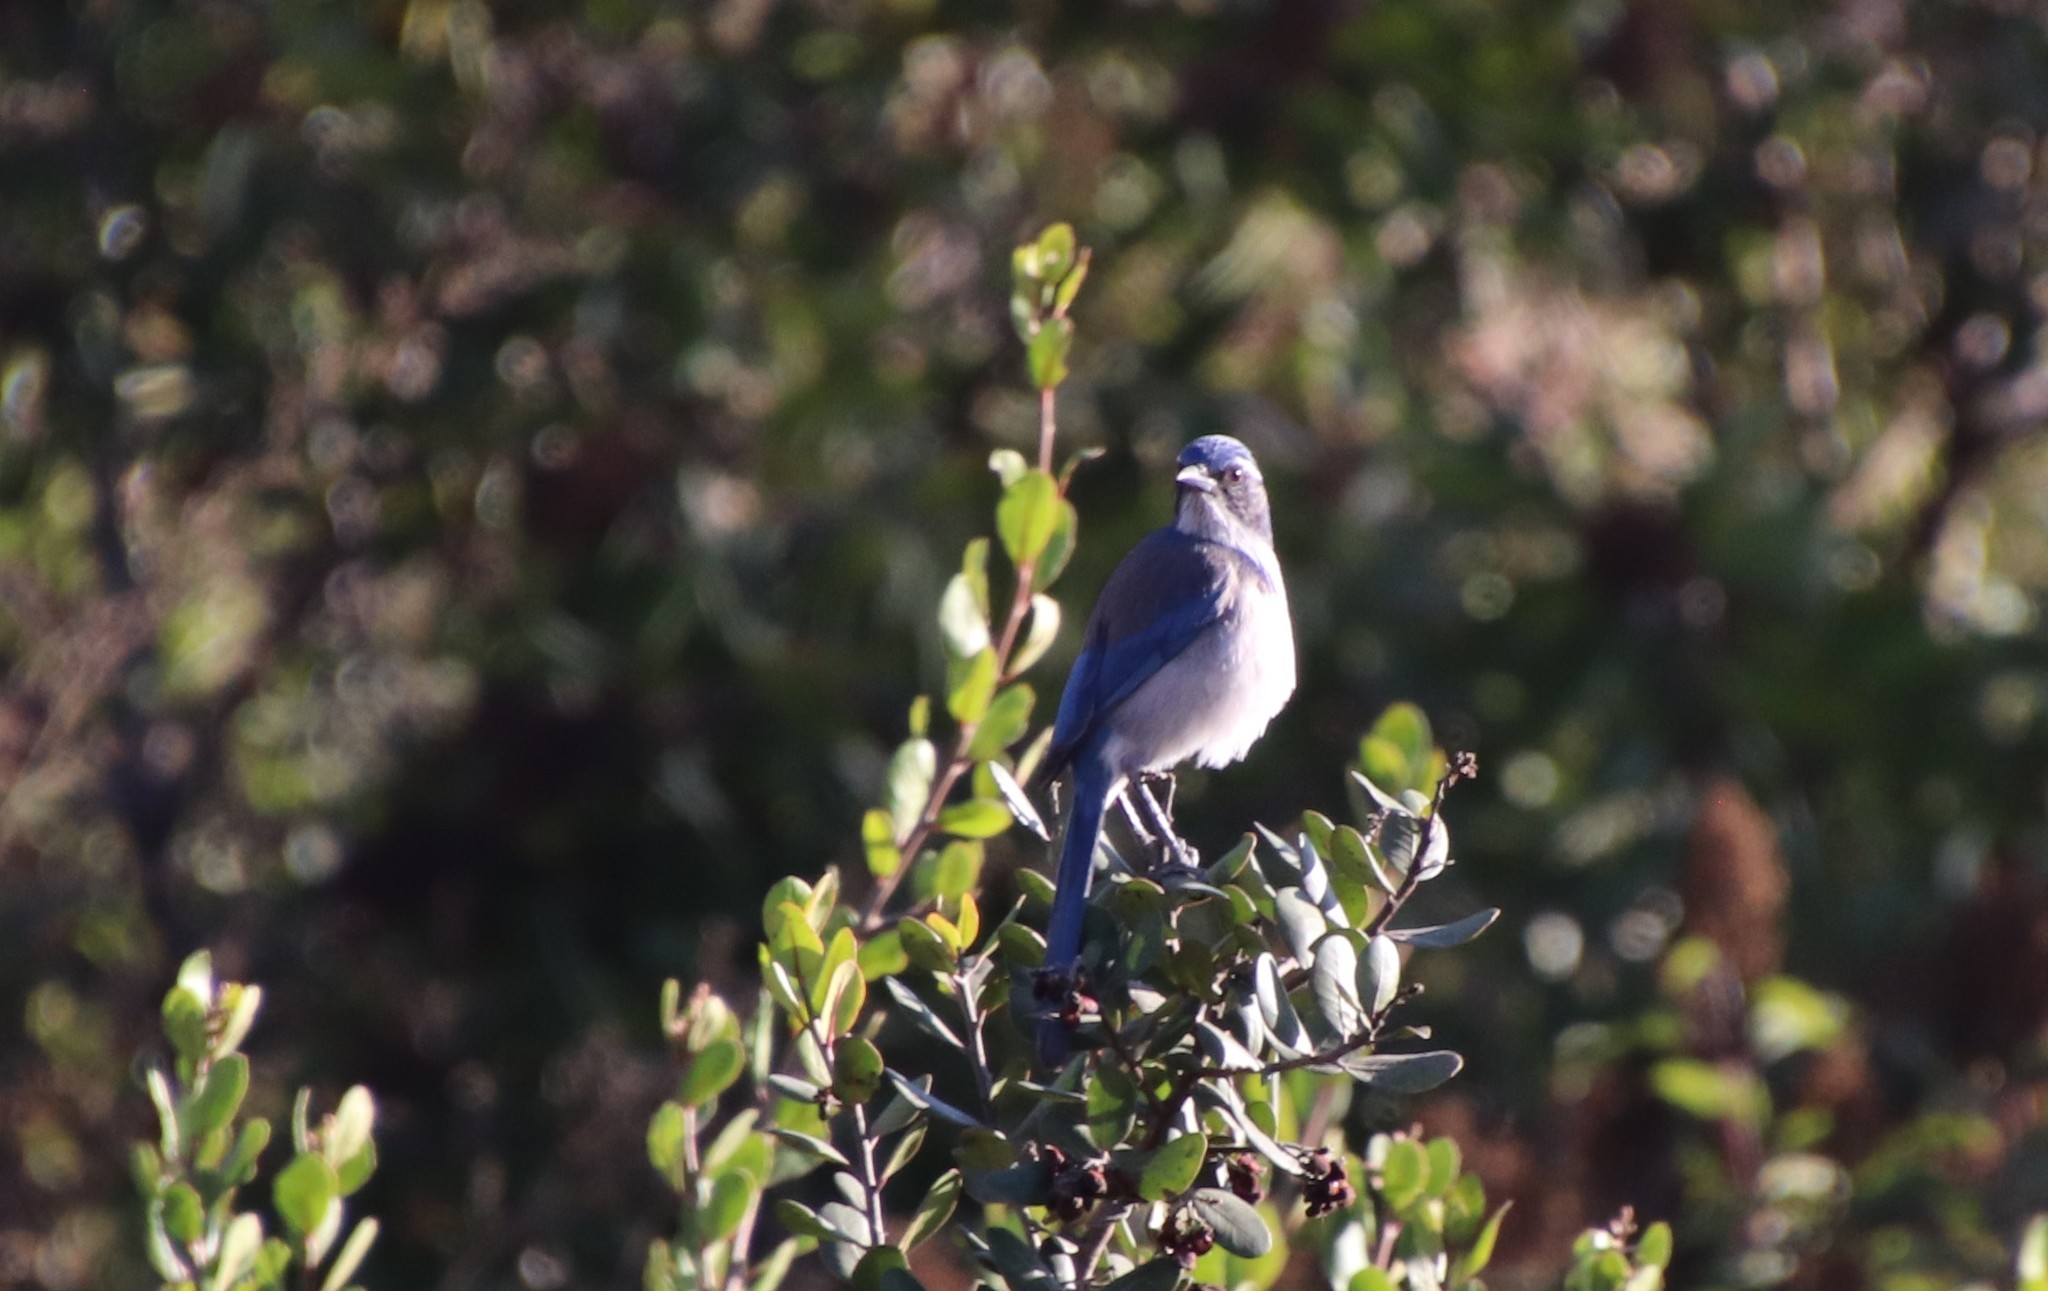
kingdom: Animalia
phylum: Chordata
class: Aves
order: Passeriformes
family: Corvidae
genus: Aphelocoma
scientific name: Aphelocoma californica
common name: California scrub-jay
